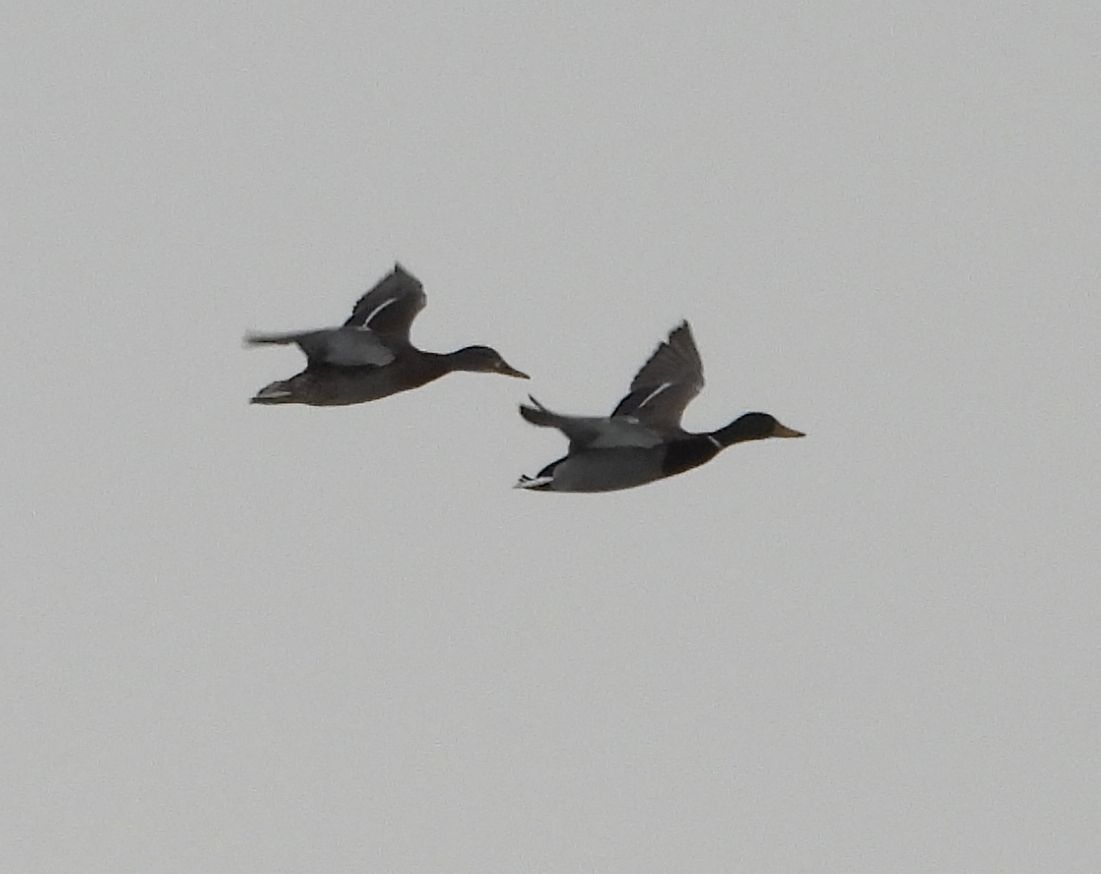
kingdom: Animalia
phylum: Chordata
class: Aves
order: Anseriformes
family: Anatidae
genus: Anas
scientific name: Anas platyrhynchos
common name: Mallard
